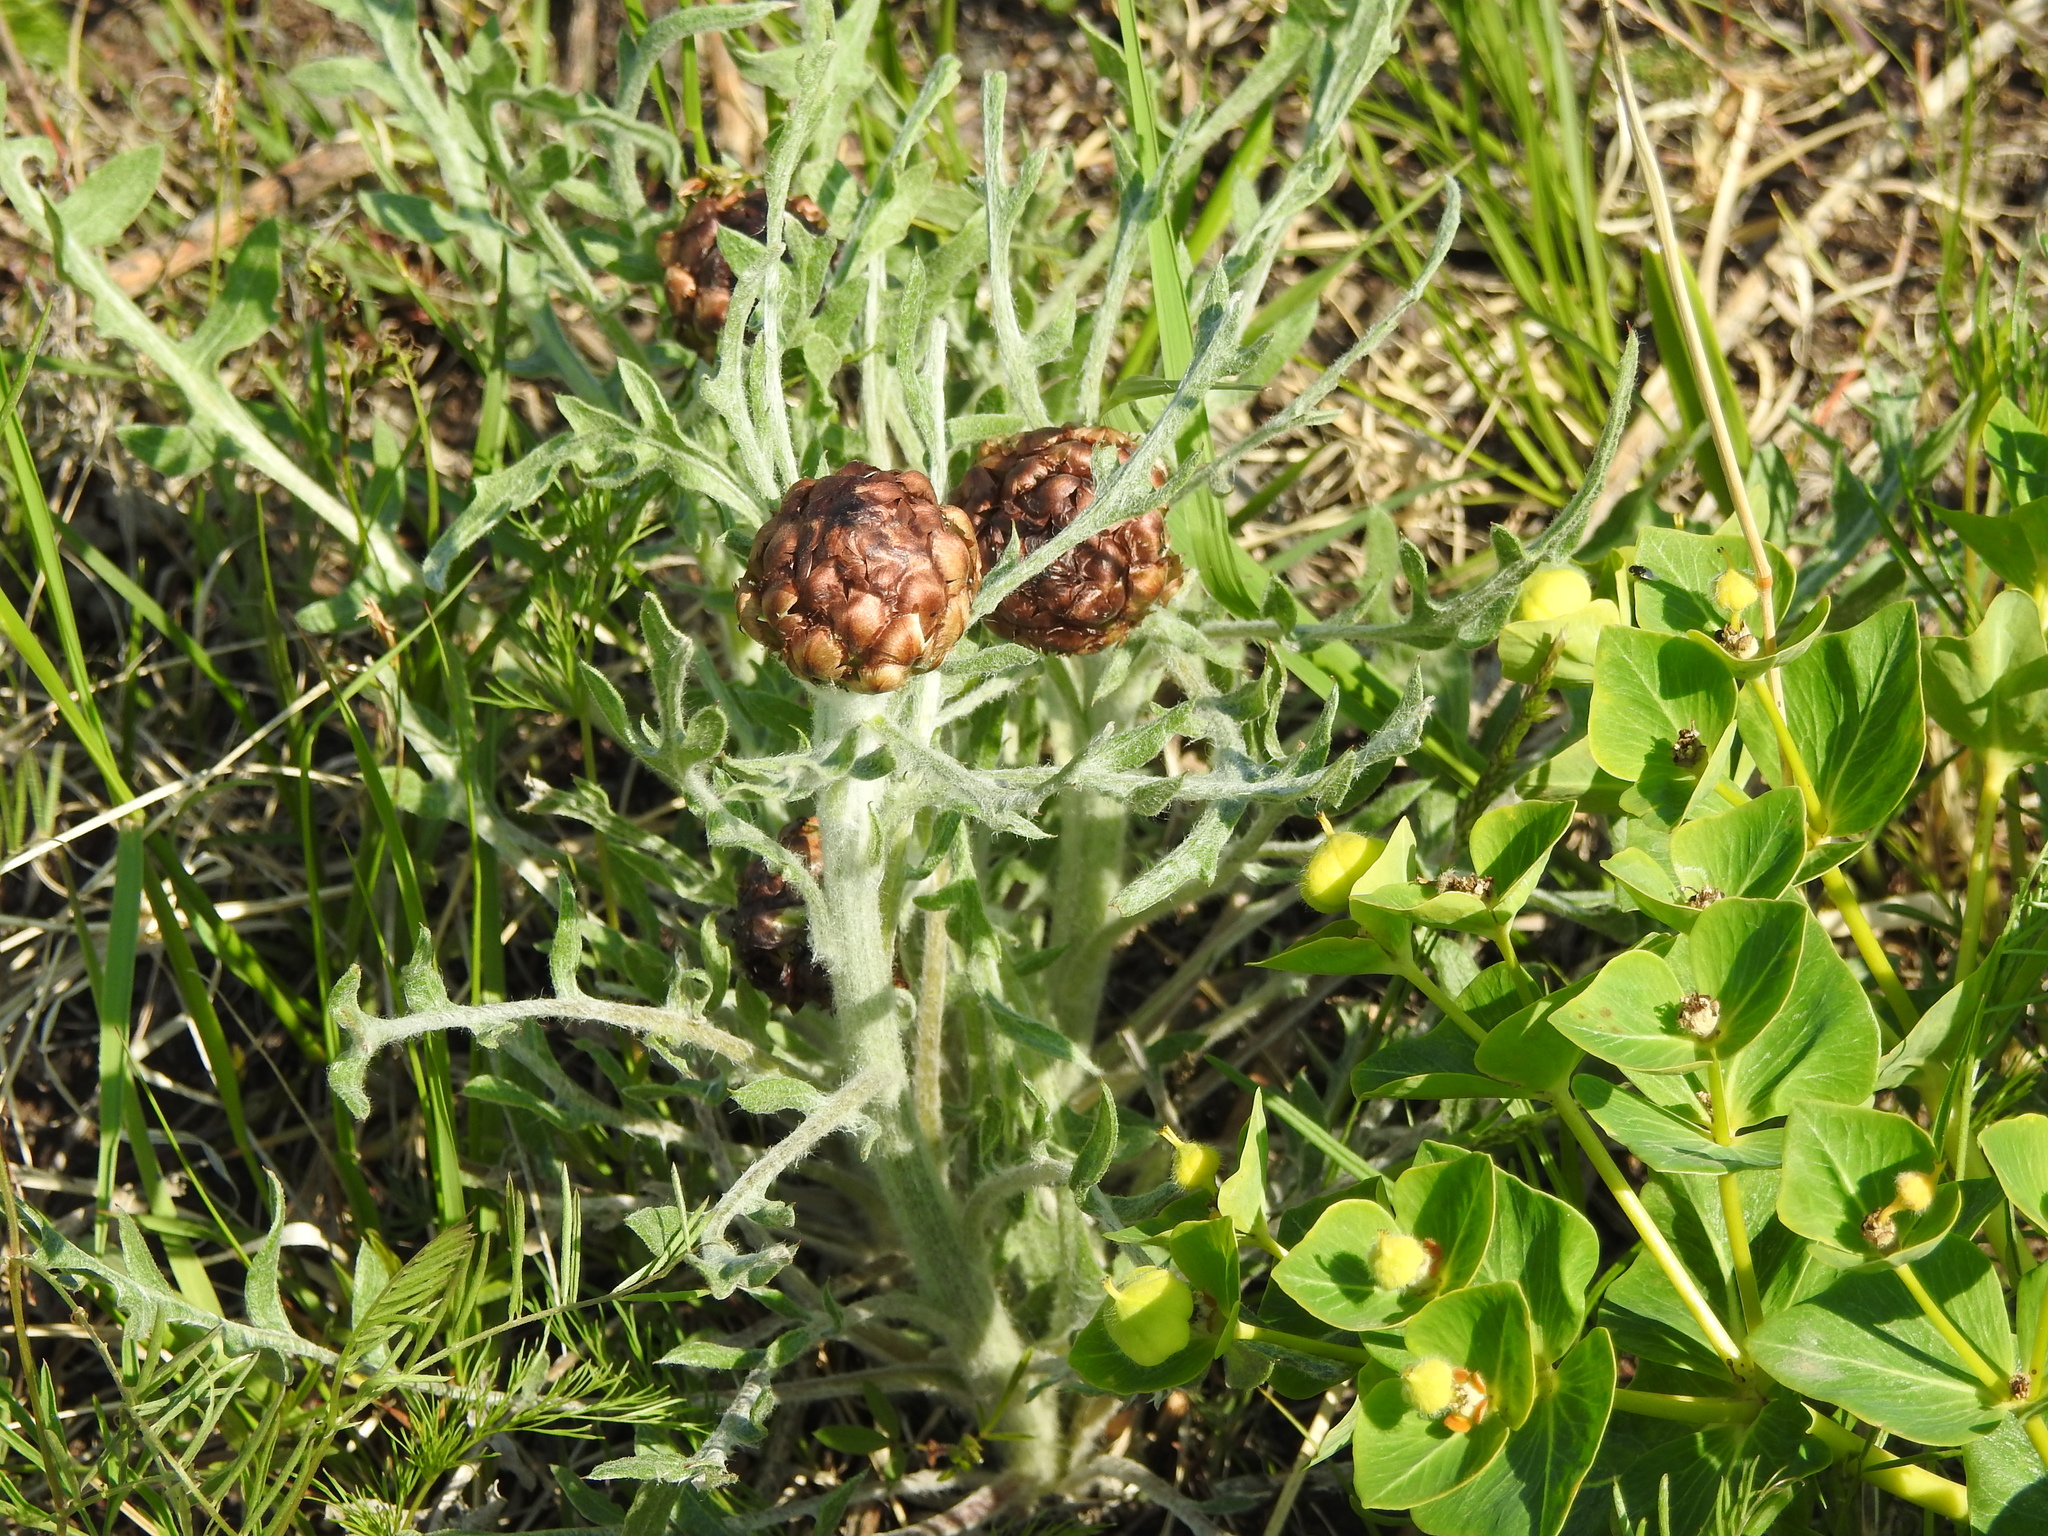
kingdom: Plantae
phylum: Tracheophyta
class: Magnoliopsida
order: Asterales
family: Asteraceae
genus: Leuzea
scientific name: Leuzea uniflora
